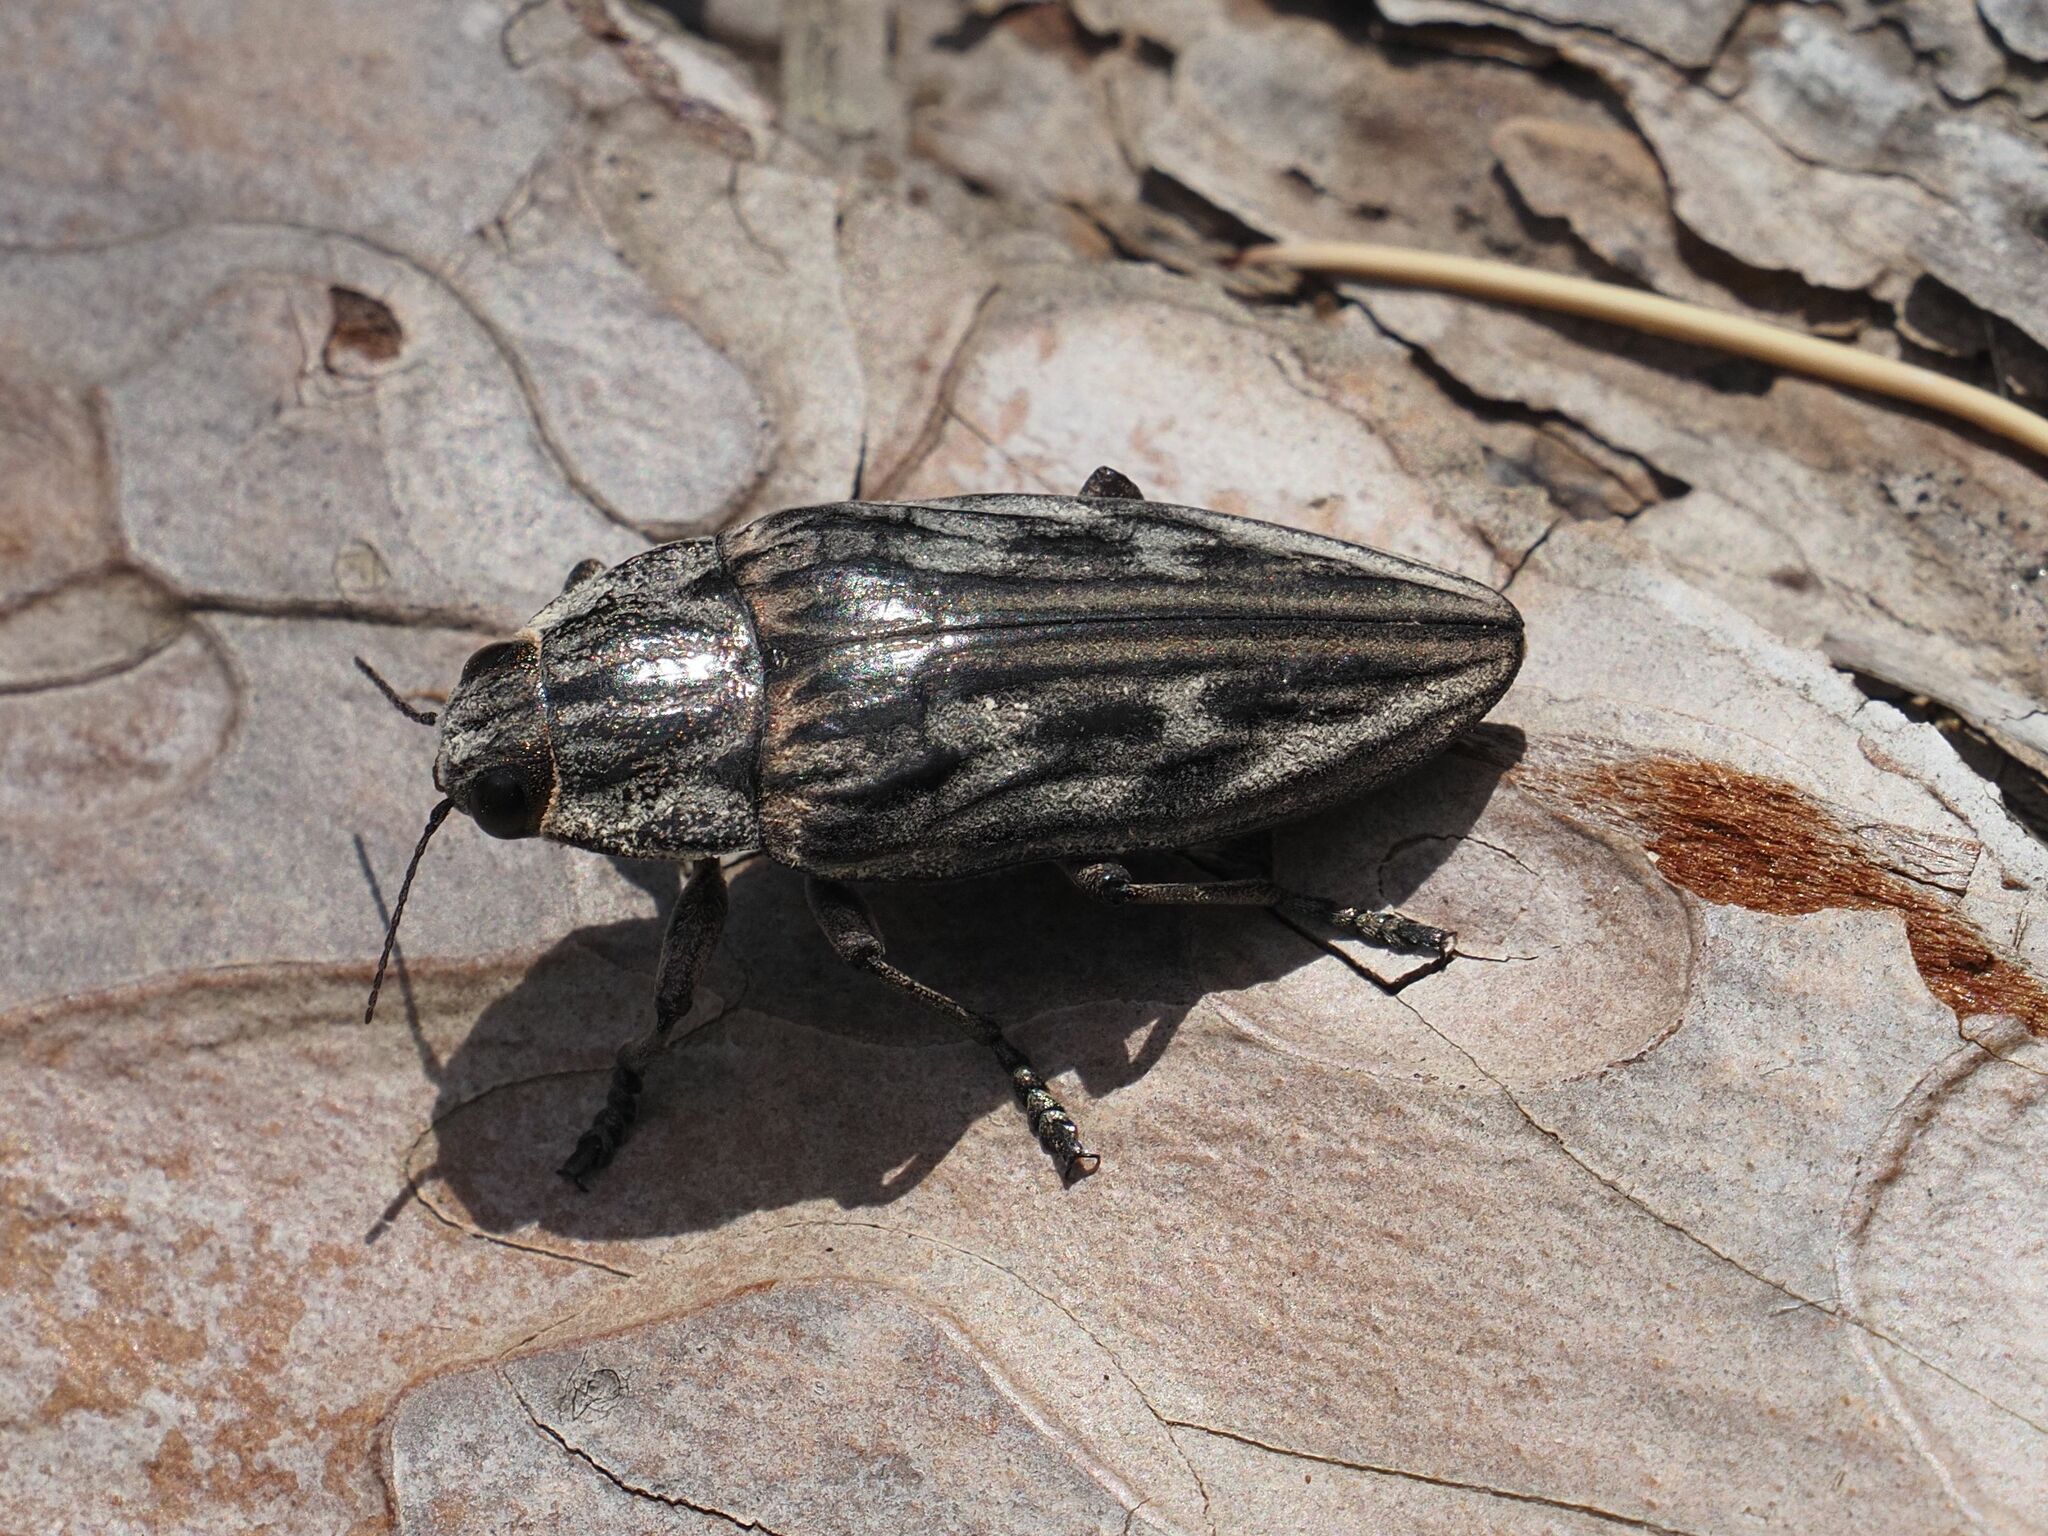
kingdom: Animalia
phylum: Arthropoda
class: Insecta
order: Coleoptera
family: Buprestidae
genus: Chalcophora
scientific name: Chalcophora mariana
